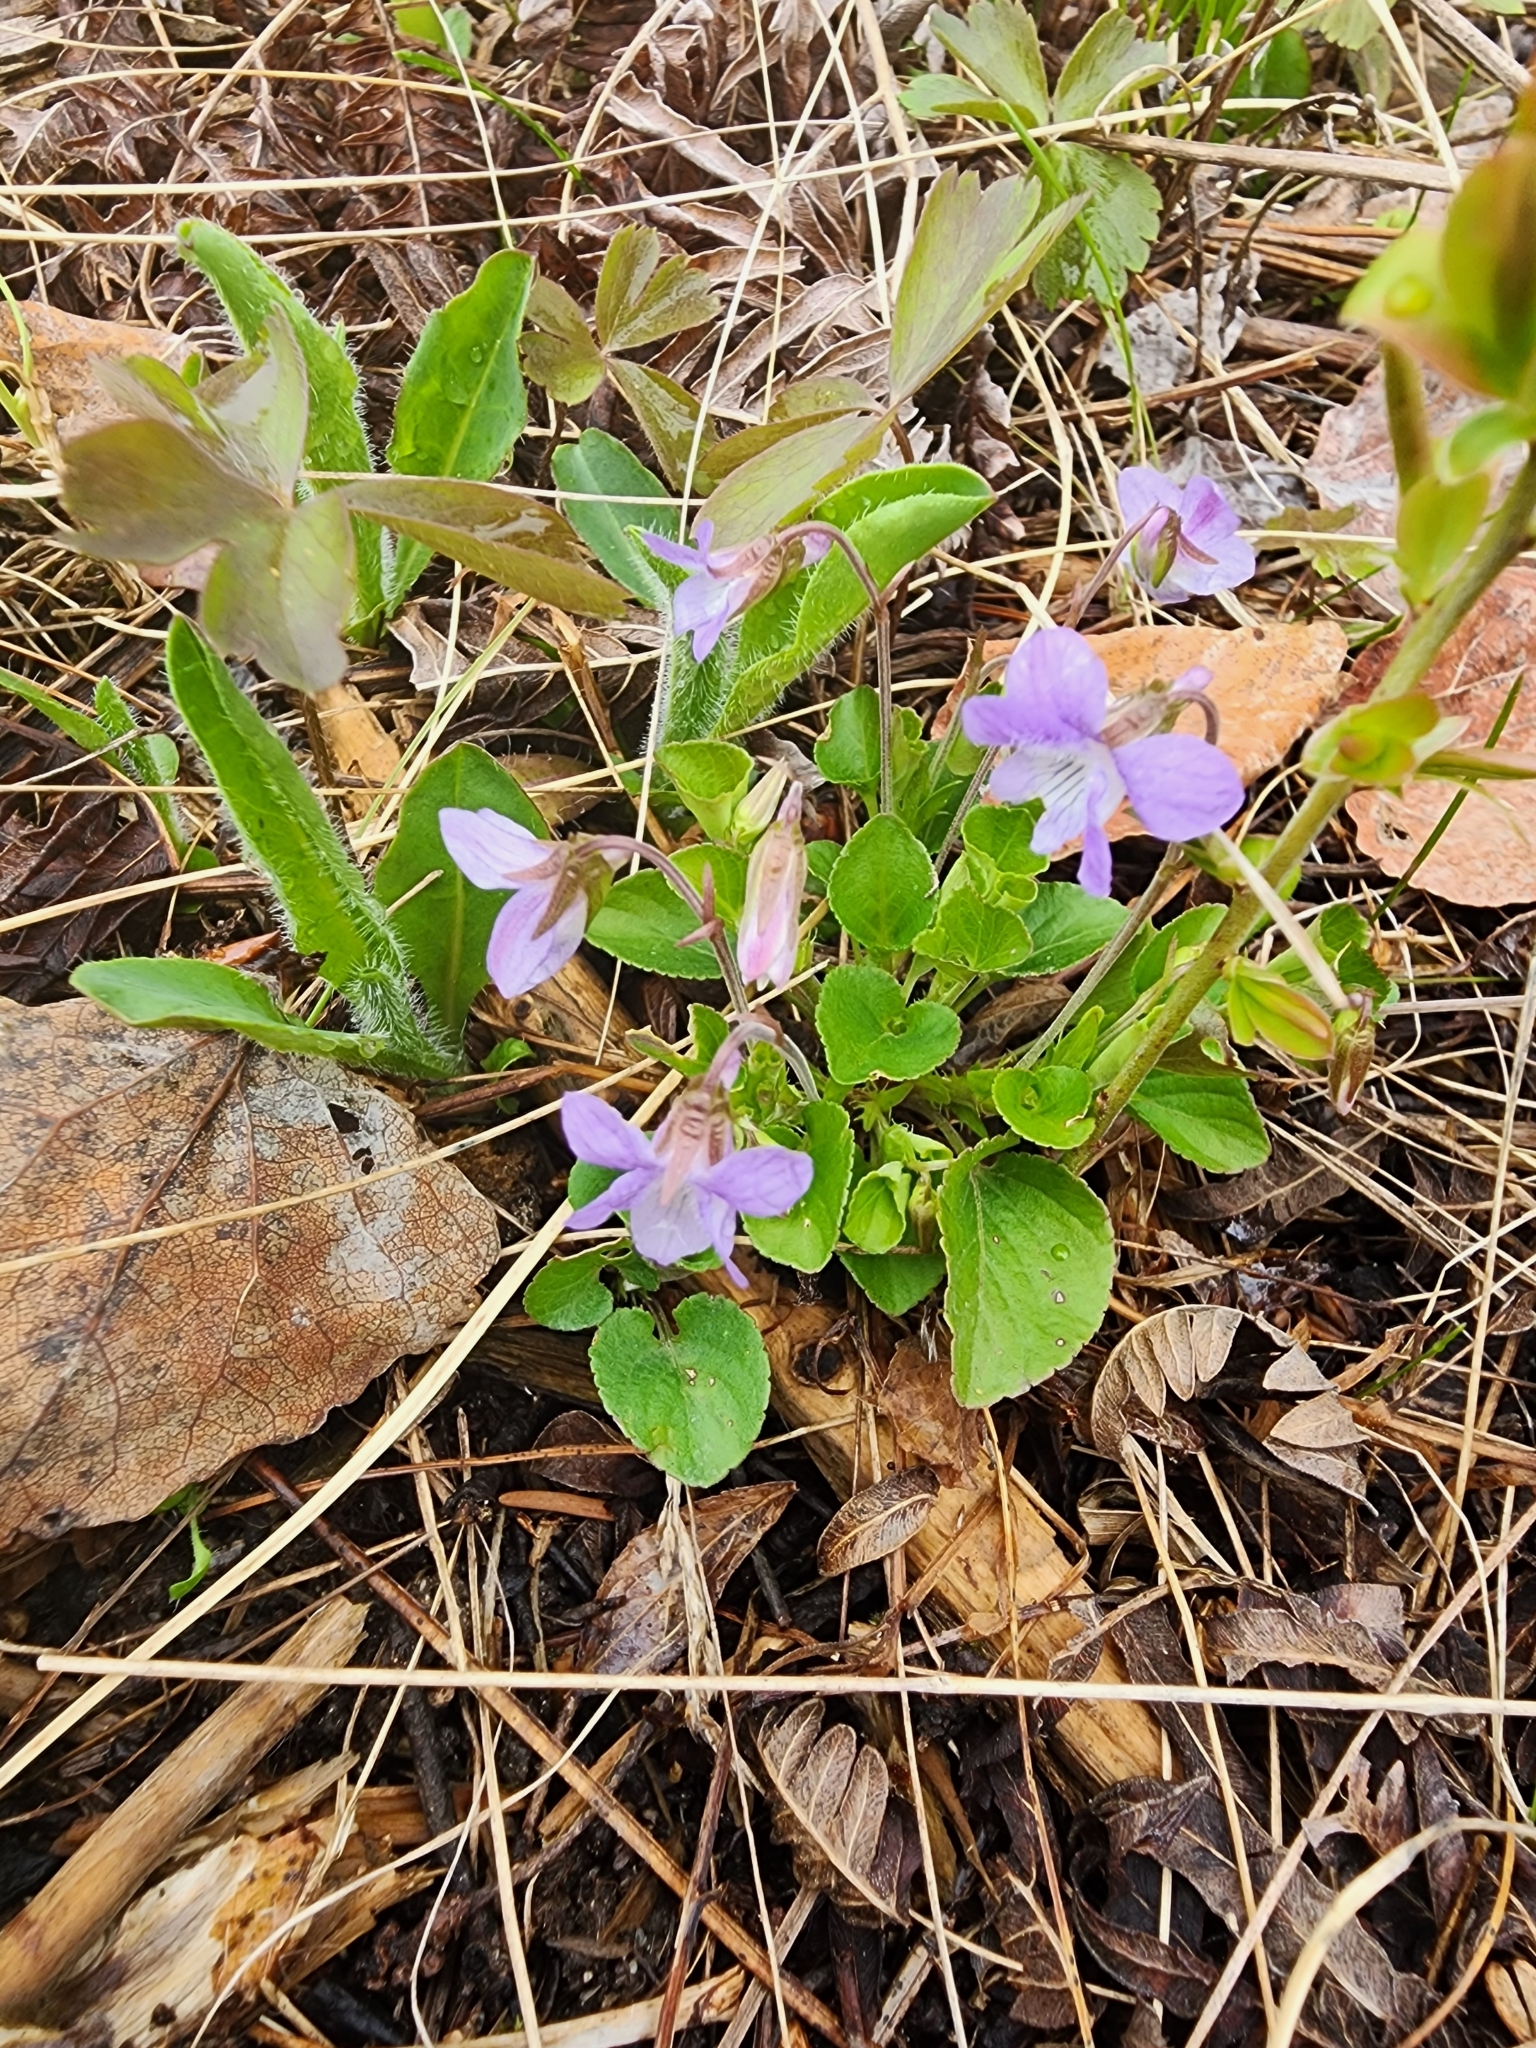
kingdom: Plantae
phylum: Tracheophyta
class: Magnoliopsida
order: Malpighiales
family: Violaceae
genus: Viola
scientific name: Viola adunca
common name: Sand violet
